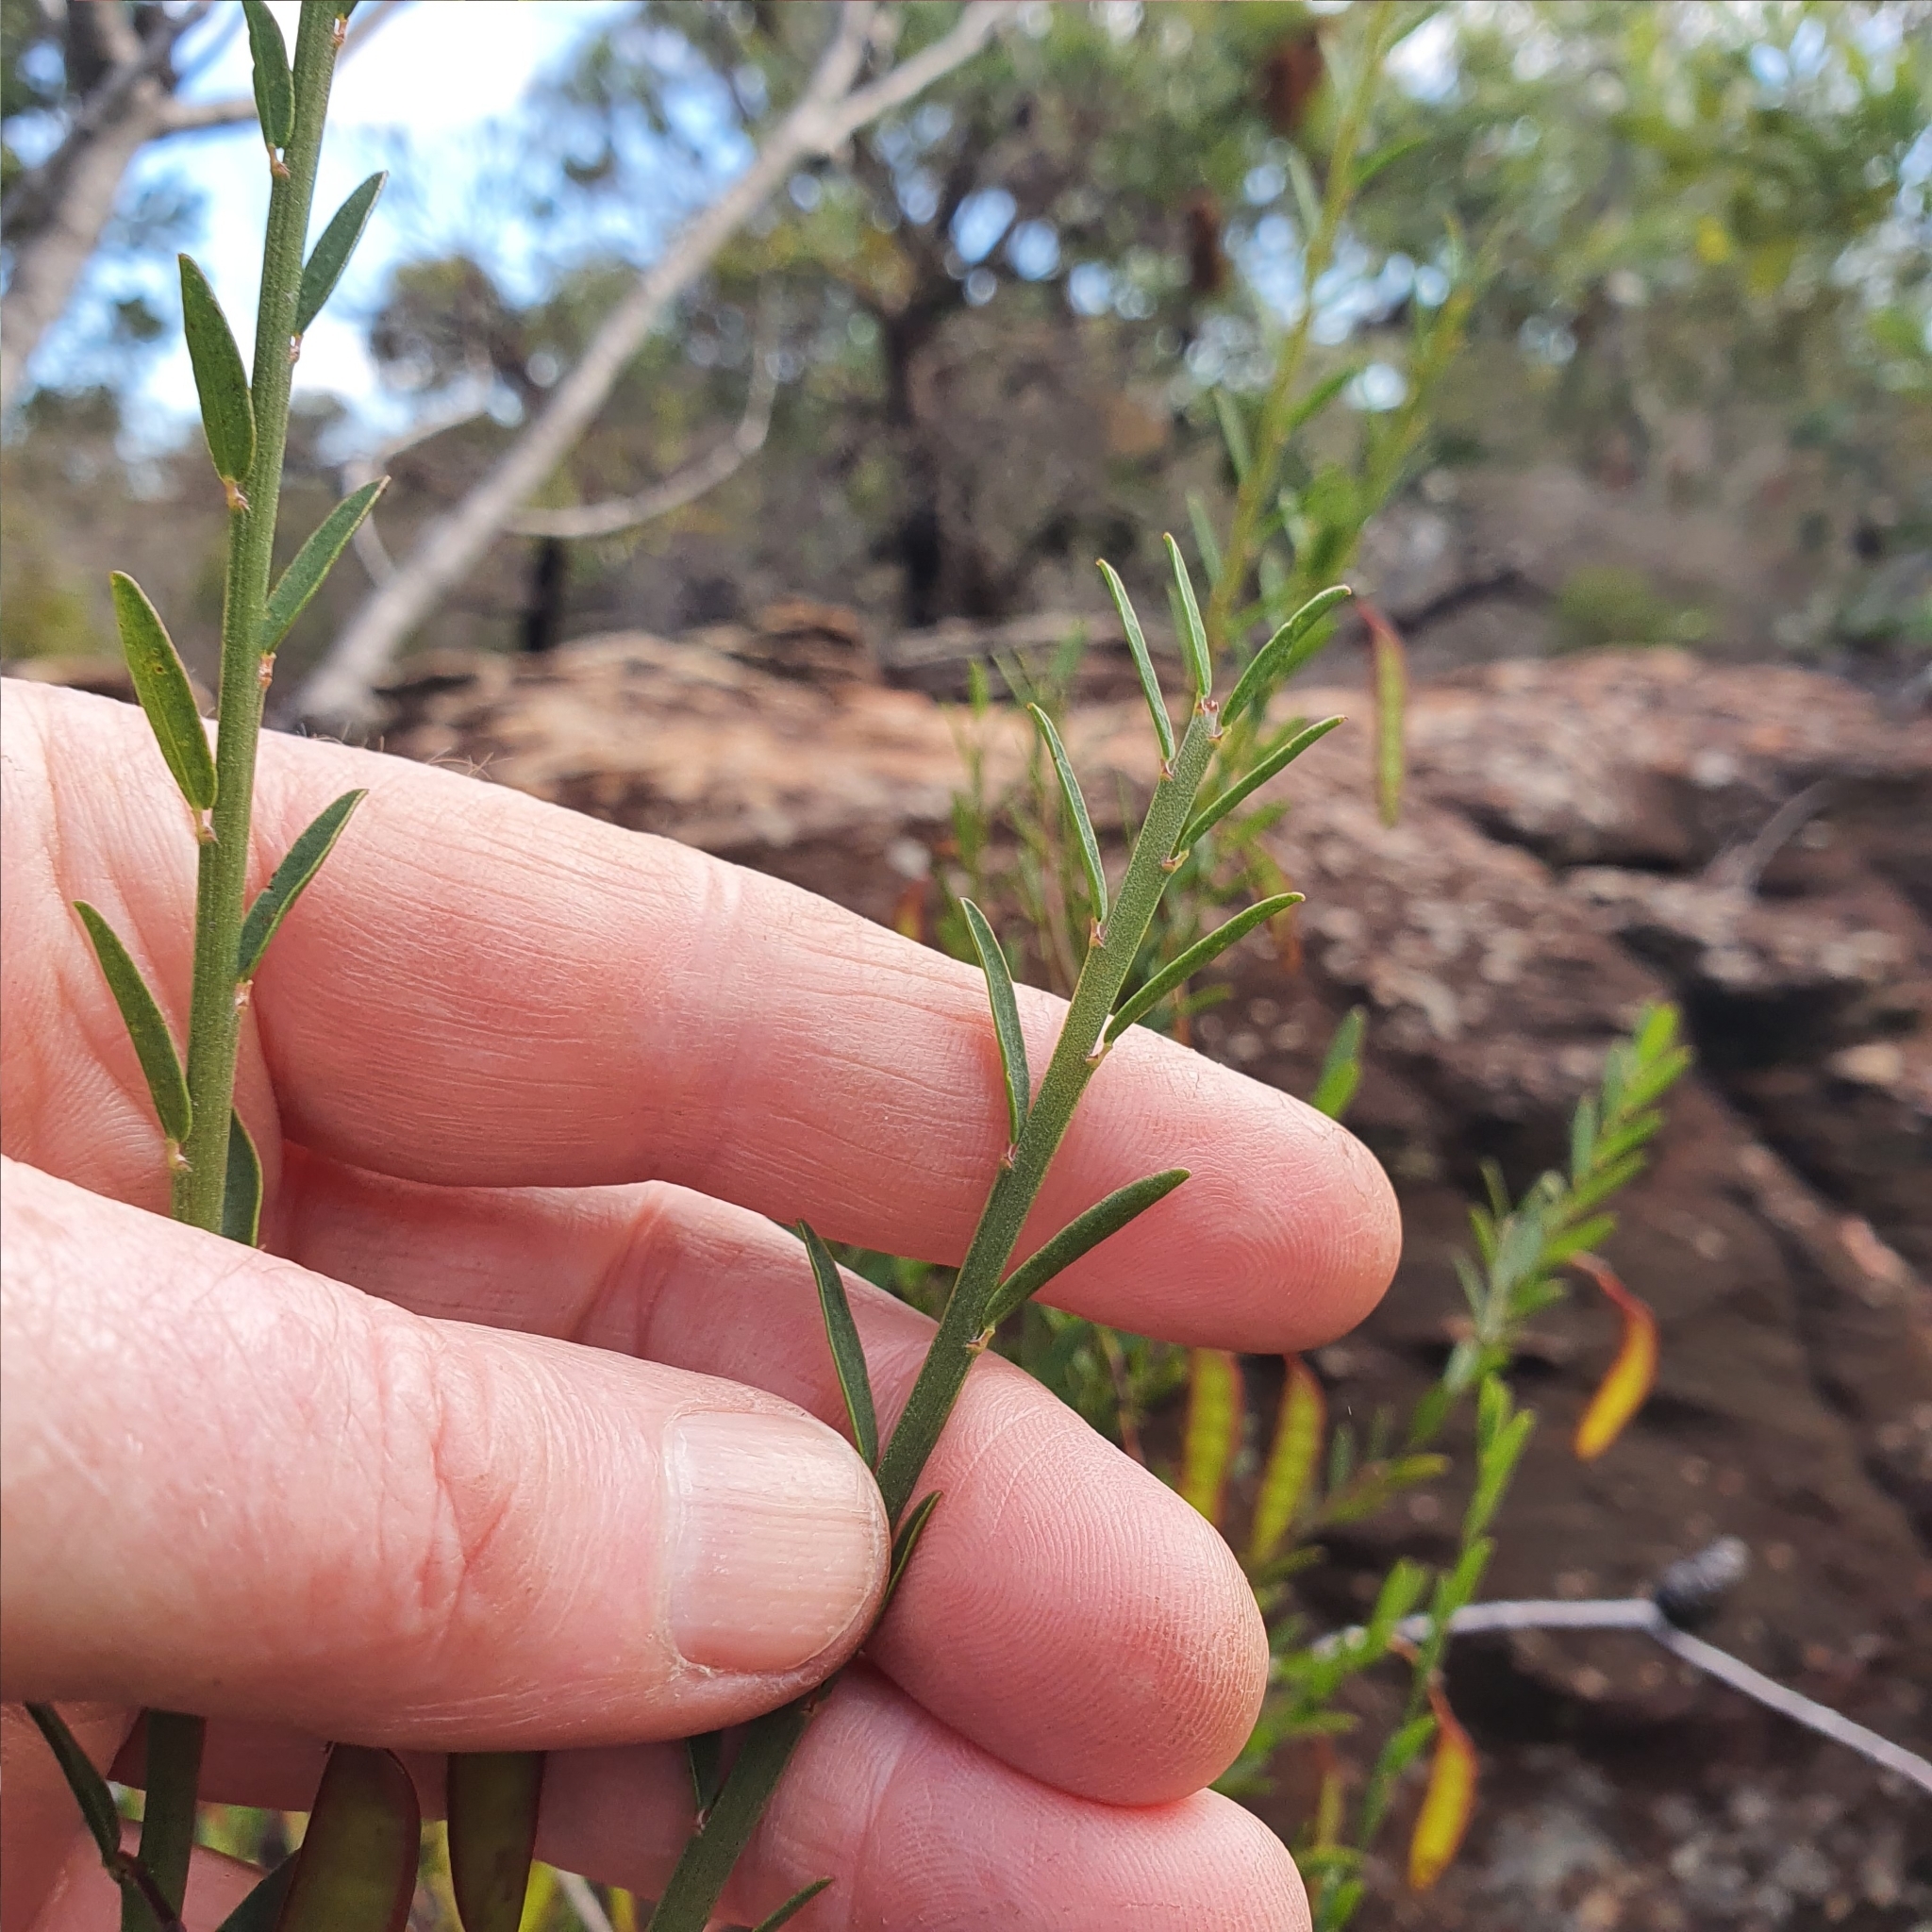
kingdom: Plantae
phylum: Tracheophyta
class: Magnoliopsida
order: Fabales
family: Fabaceae
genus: Bossiaea
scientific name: Bossiaea heterophylla
